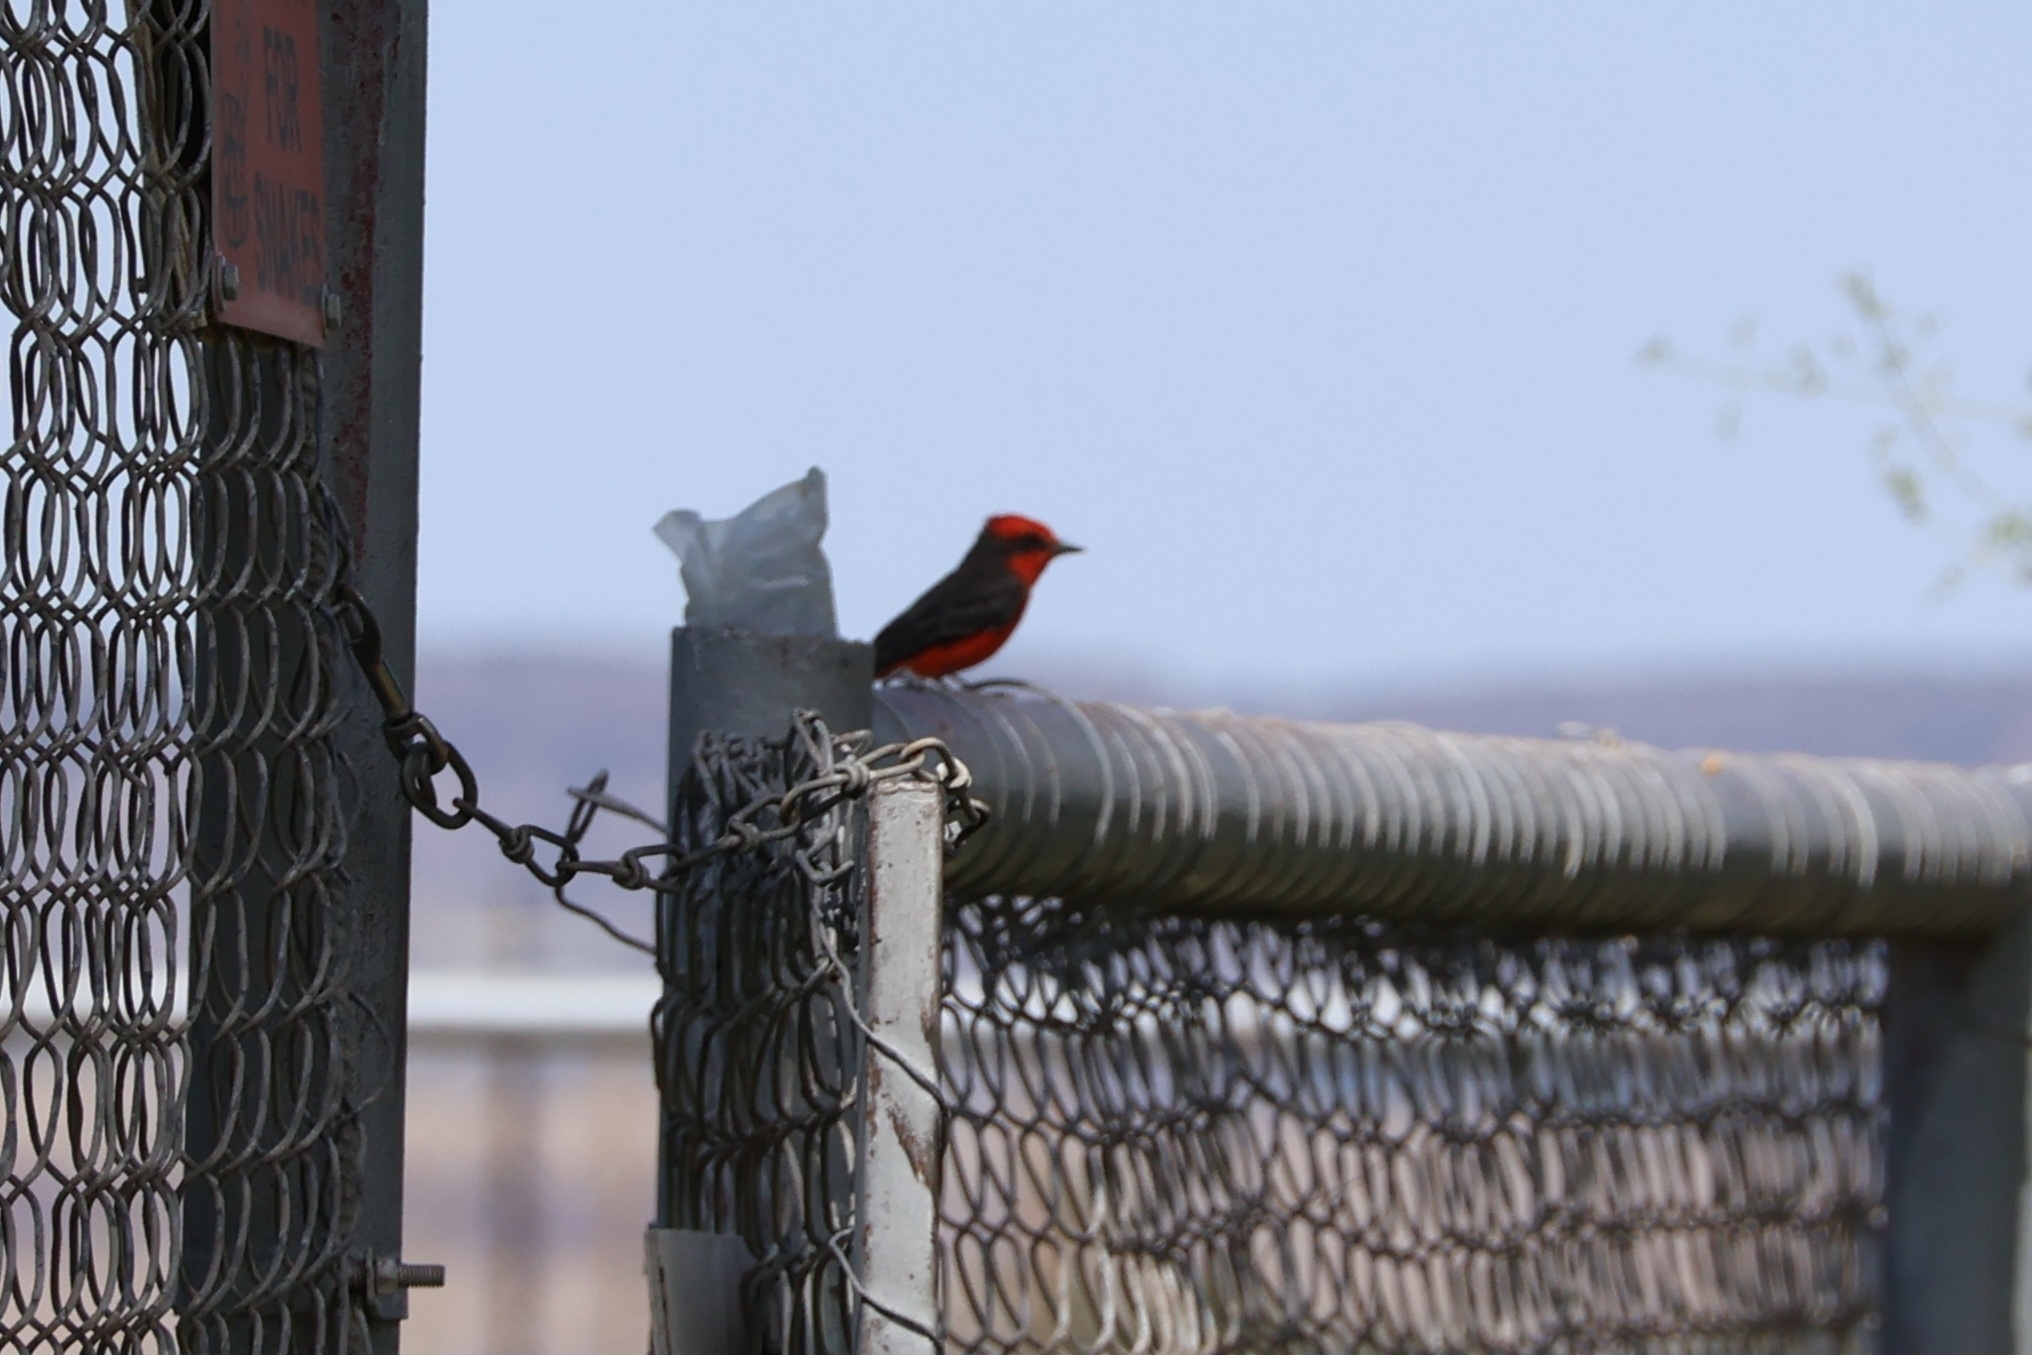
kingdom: Animalia
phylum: Chordata
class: Aves
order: Passeriformes
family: Tyrannidae
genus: Pyrocephalus
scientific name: Pyrocephalus rubinus
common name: Vermilion flycatcher
